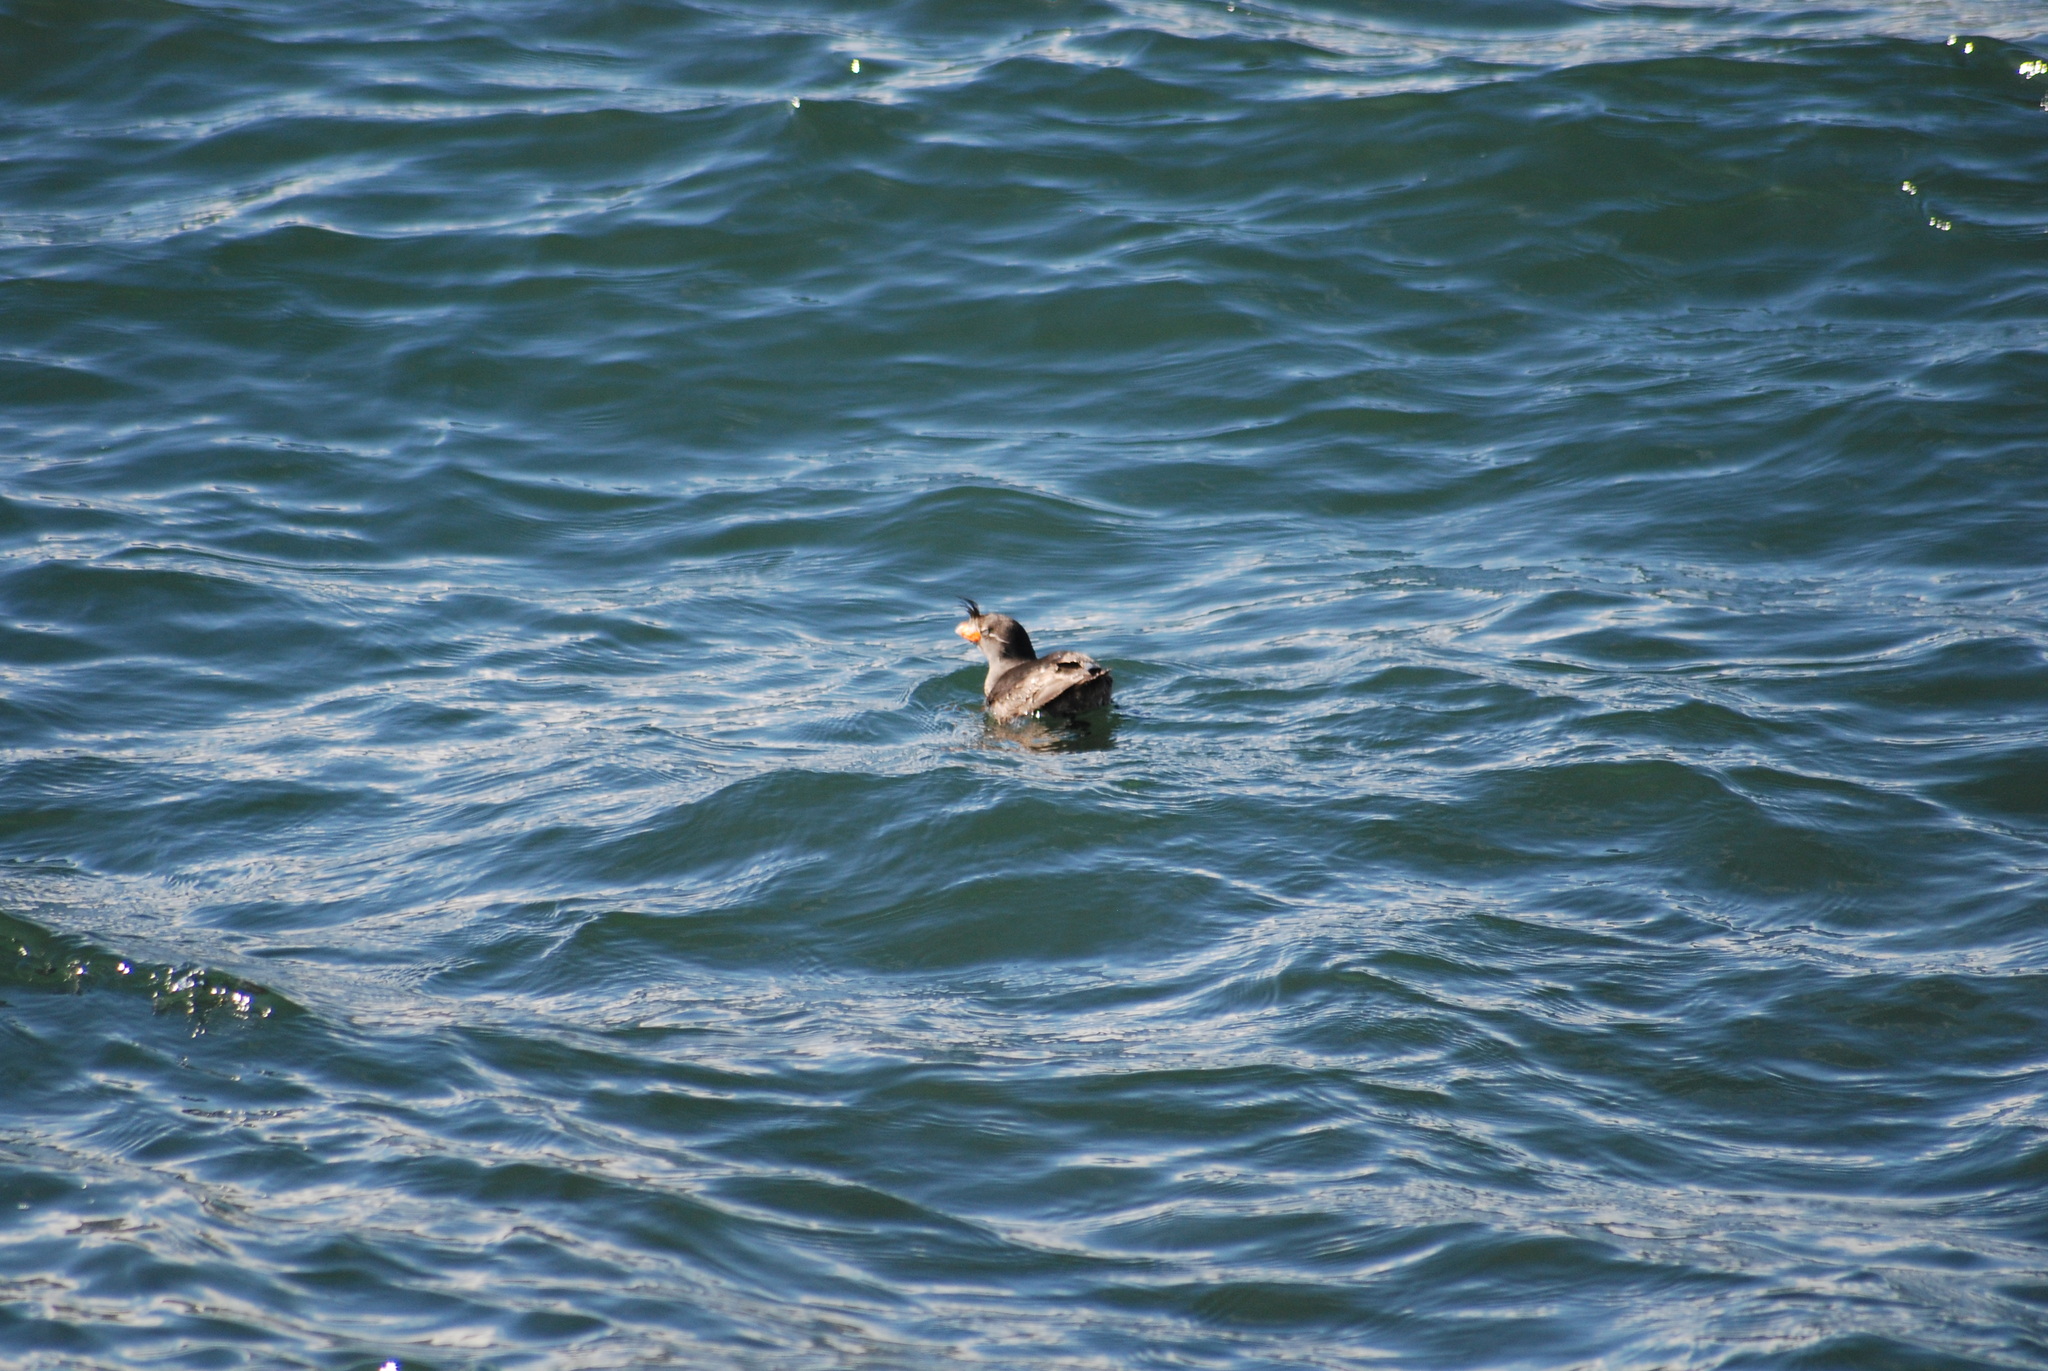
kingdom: Animalia
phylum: Chordata
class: Aves
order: Charadriiformes
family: Alcidae
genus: Aethia
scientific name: Aethia cristatella
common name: Crested auklet
